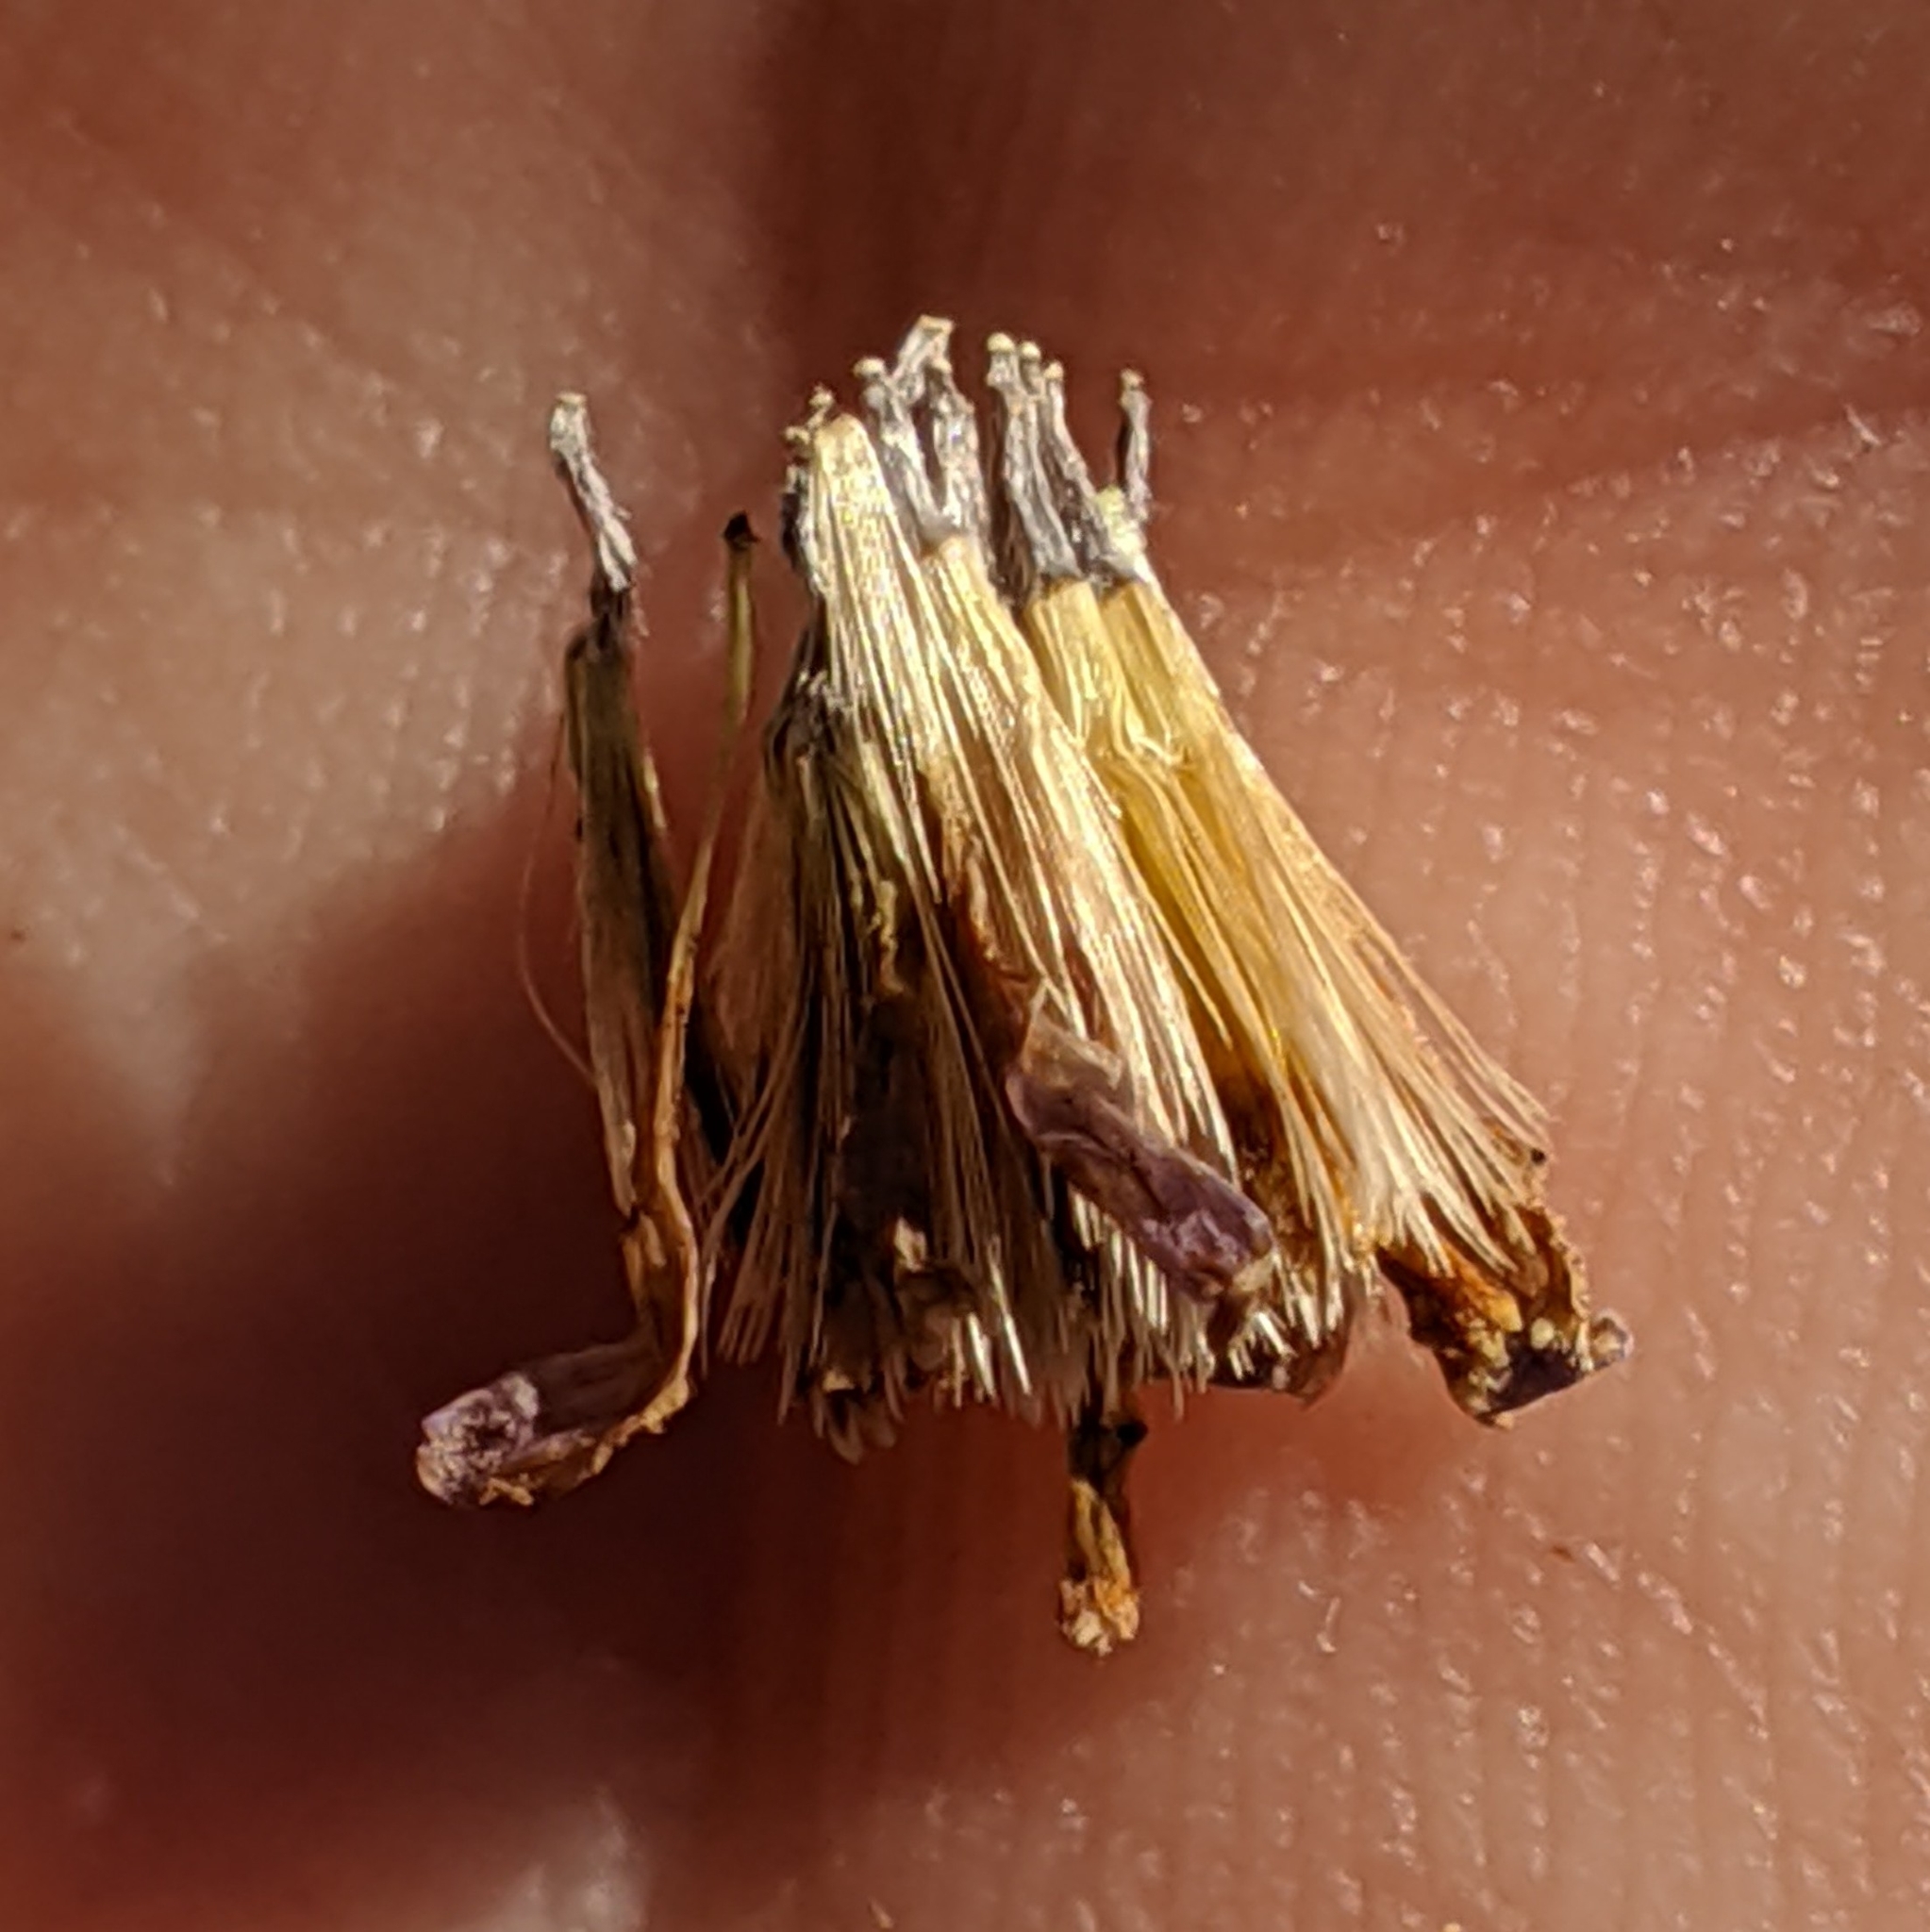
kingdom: Plantae
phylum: Tracheophyta
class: Magnoliopsida
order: Asterales
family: Asteraceae
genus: Corethrogyne
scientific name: Corethrogyne filaginifolia
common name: Sand-aster
